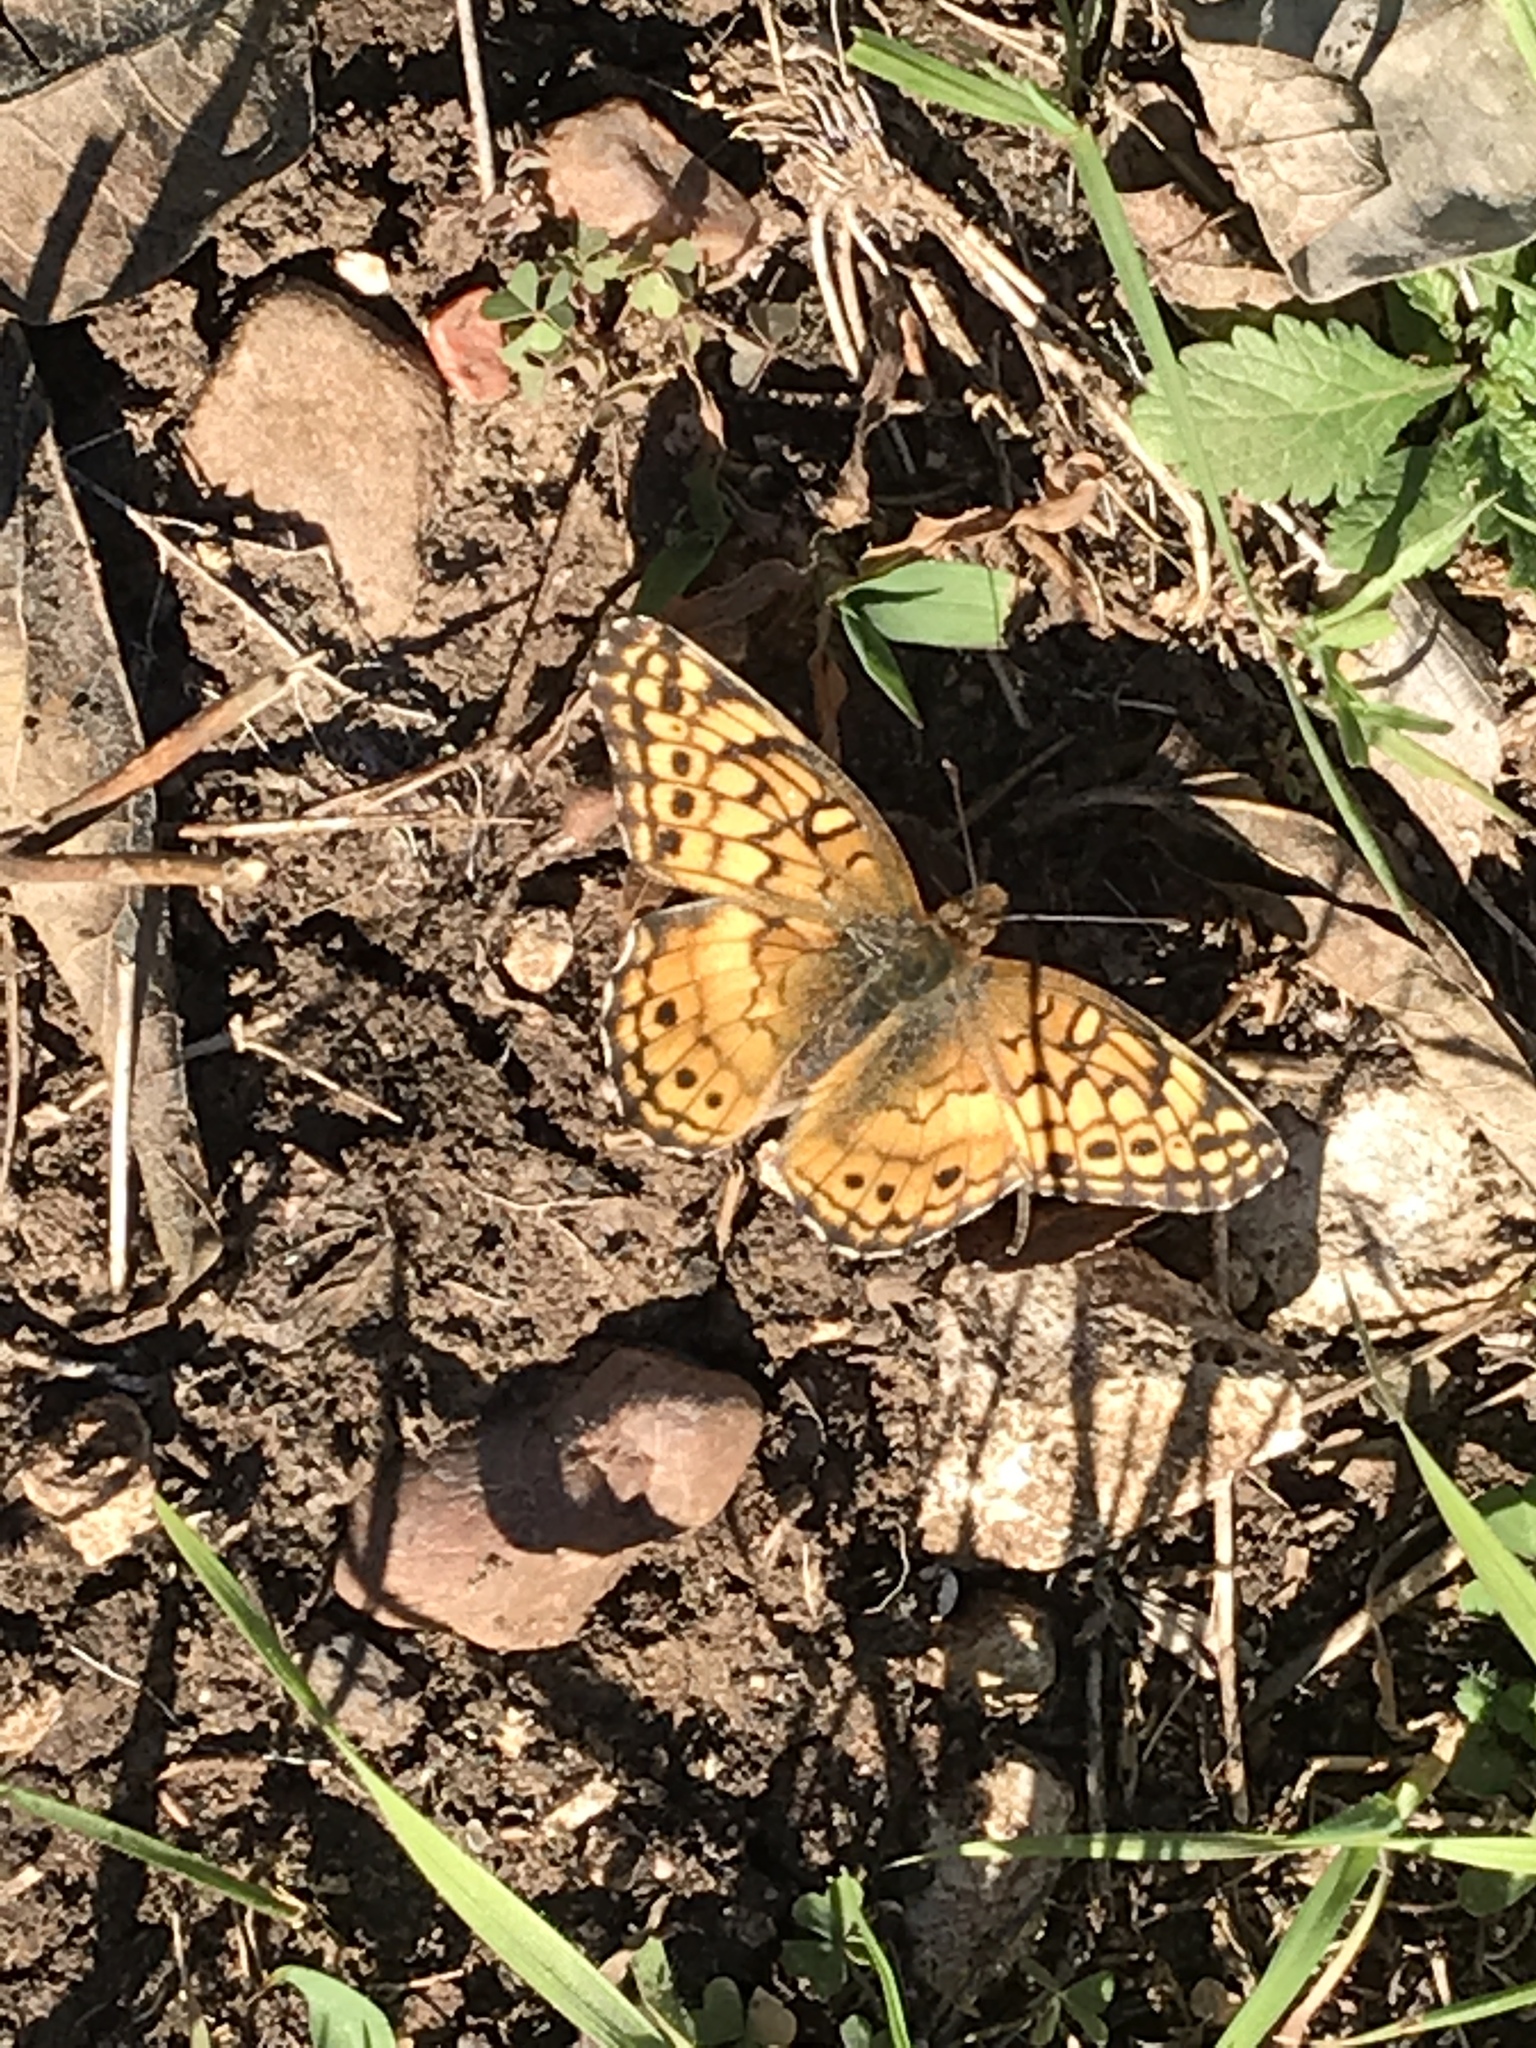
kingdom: Animalia
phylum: Arthropoda
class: Insecta
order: Lepidoptera
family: Nymphalidae
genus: Euptoieta
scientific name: Euptoieta claudia
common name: Variegated fritillary
